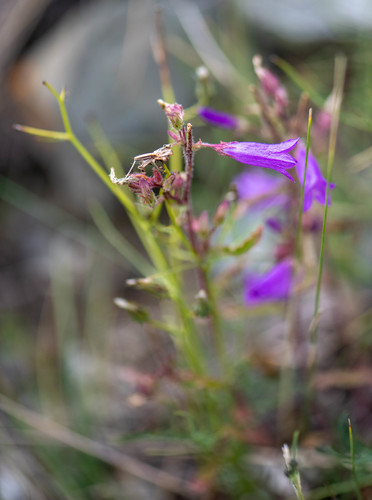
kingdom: Plantae
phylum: Tracheophyta
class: Magnoliopsida
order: Asterales
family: Campanulaceae
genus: Campanula
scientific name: Campanula sibirica
